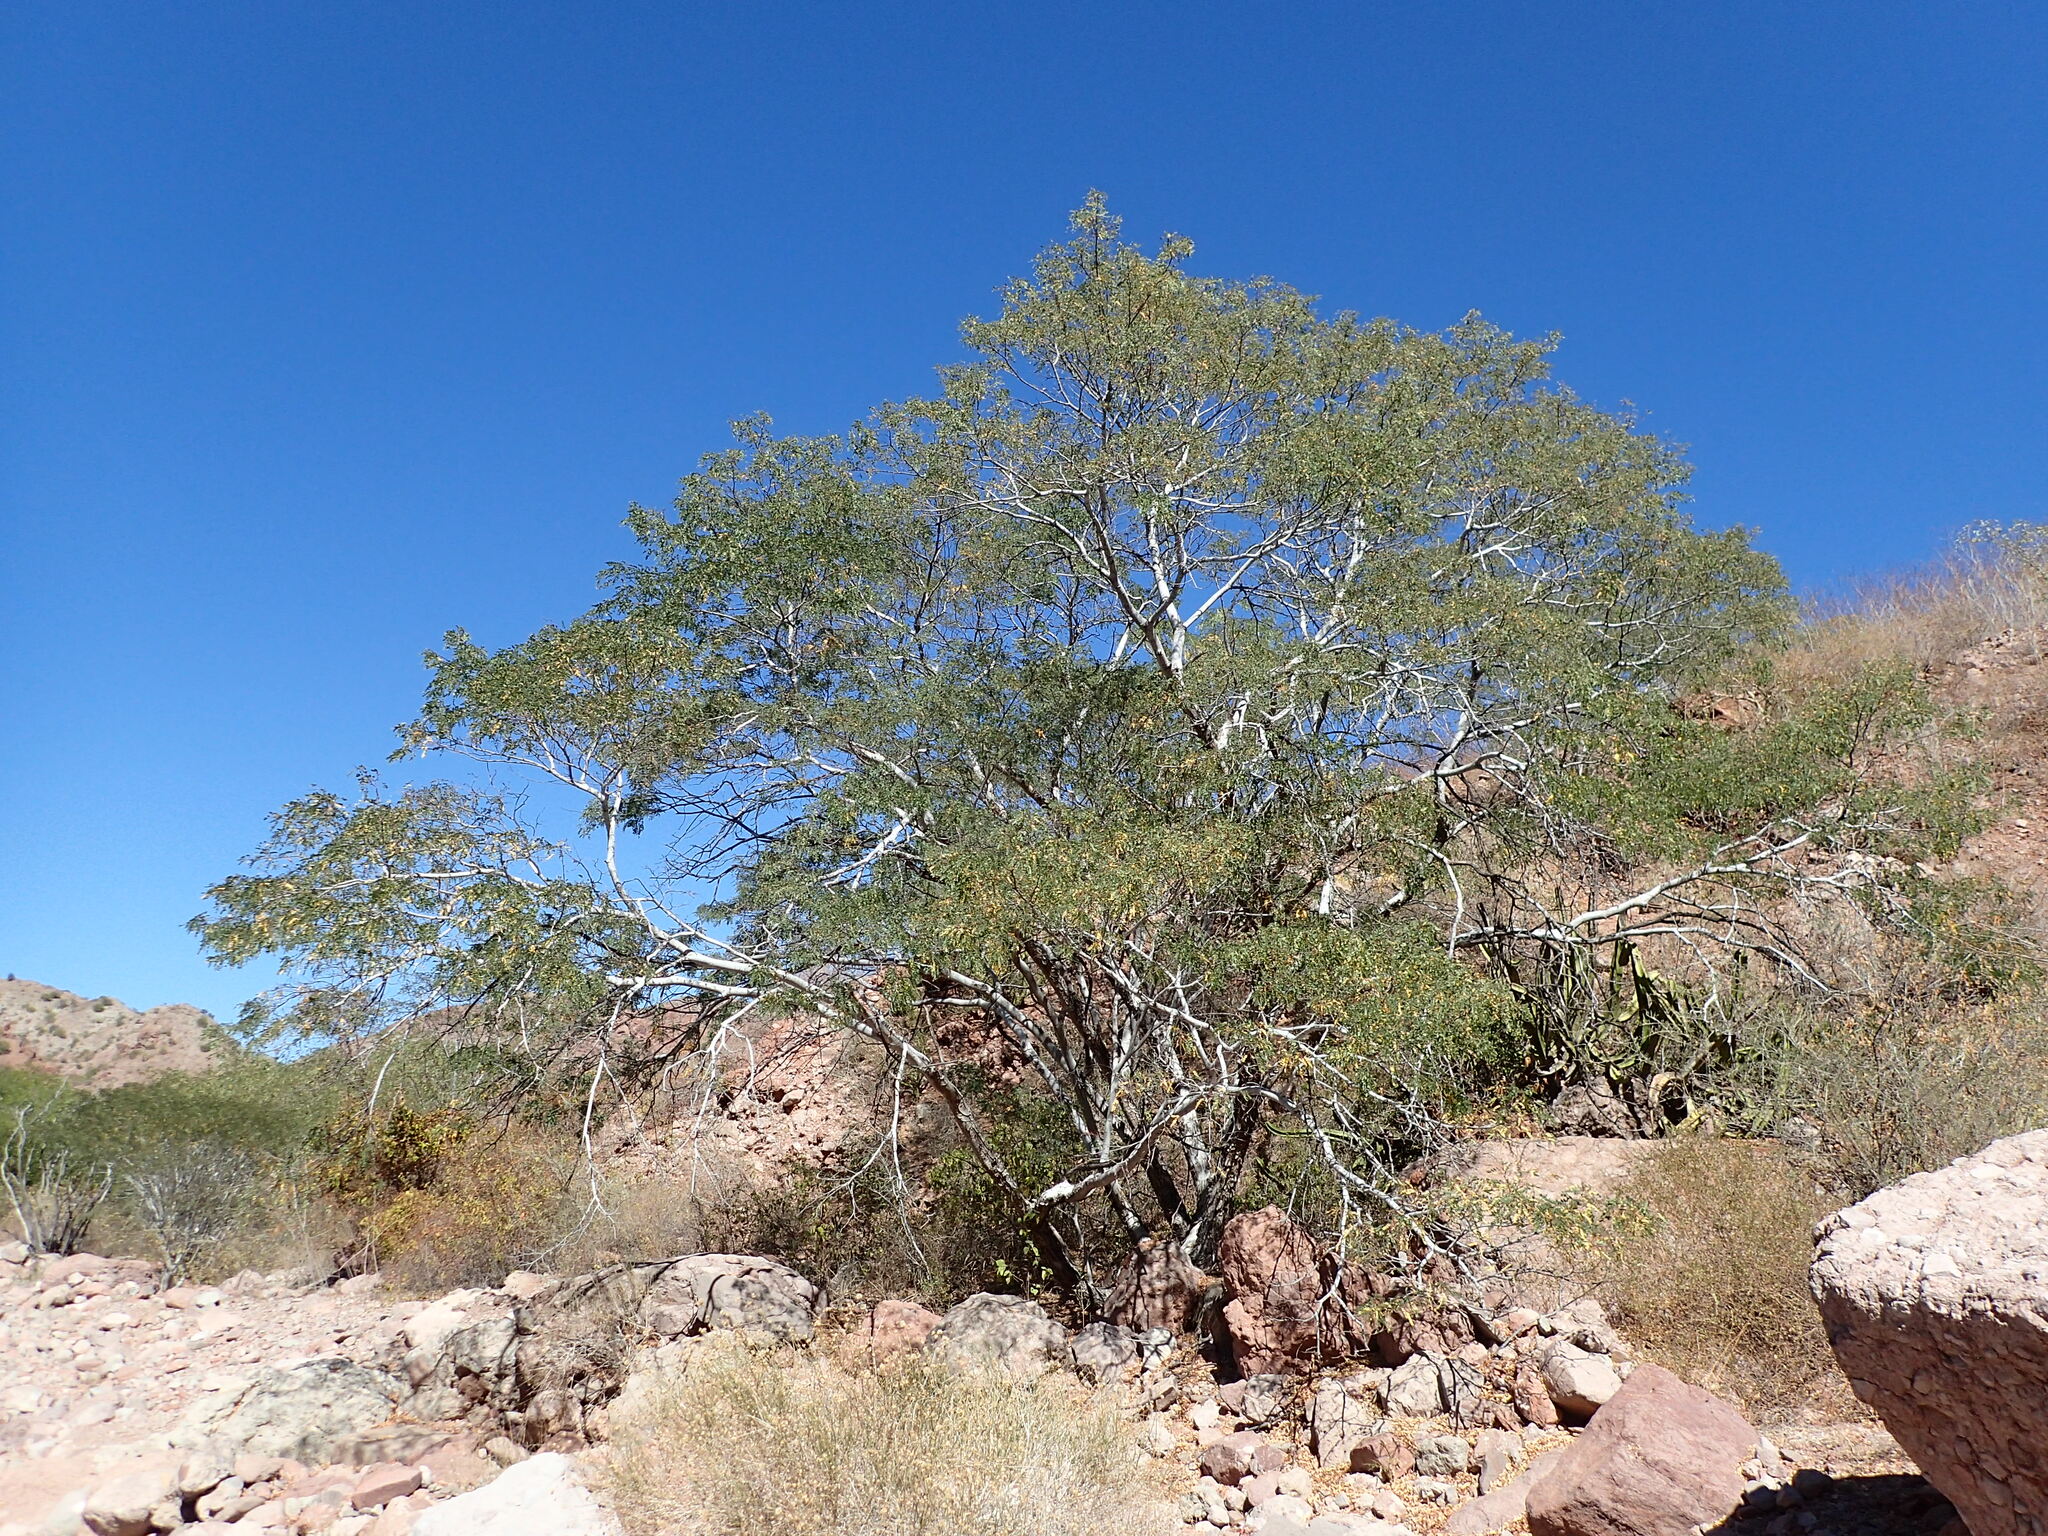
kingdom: Plantae
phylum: Tracheophyta
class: Magnoliopsida
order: Fabales
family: Fabaceae
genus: Lysiloma
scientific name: Lysiloma candidum
